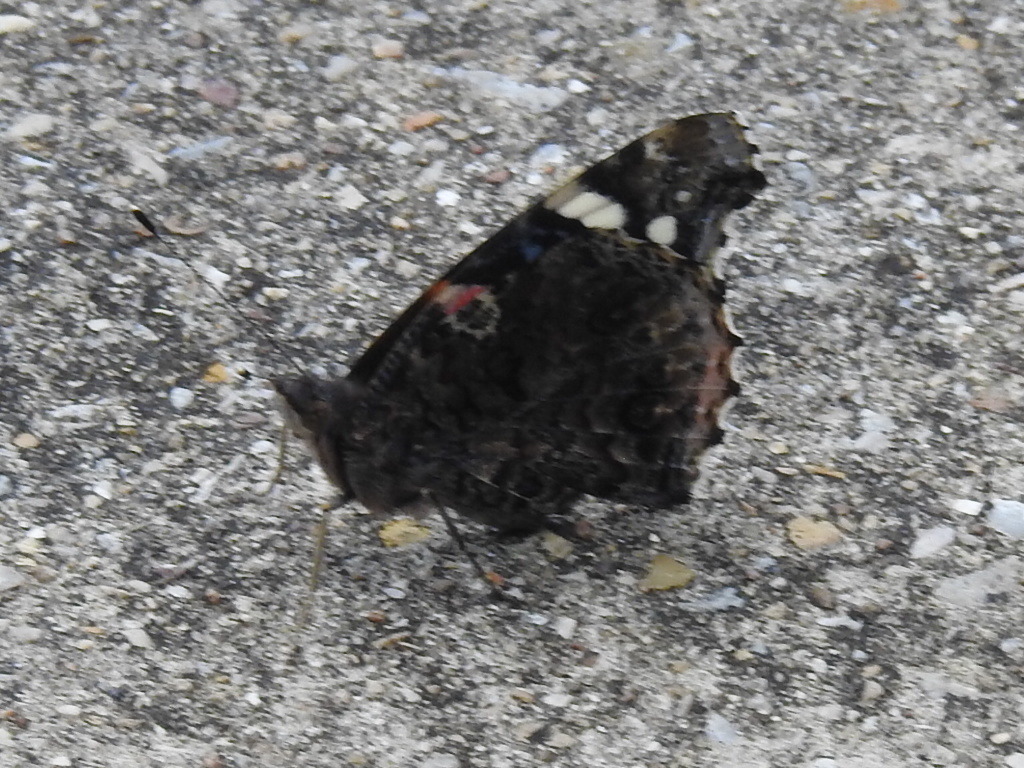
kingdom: Animalia
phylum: Arthropoda
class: Insecta
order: Lepidoptera
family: Nymphalidae
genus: Vanessa
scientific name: Vanessa atalanta
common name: Red admiral
